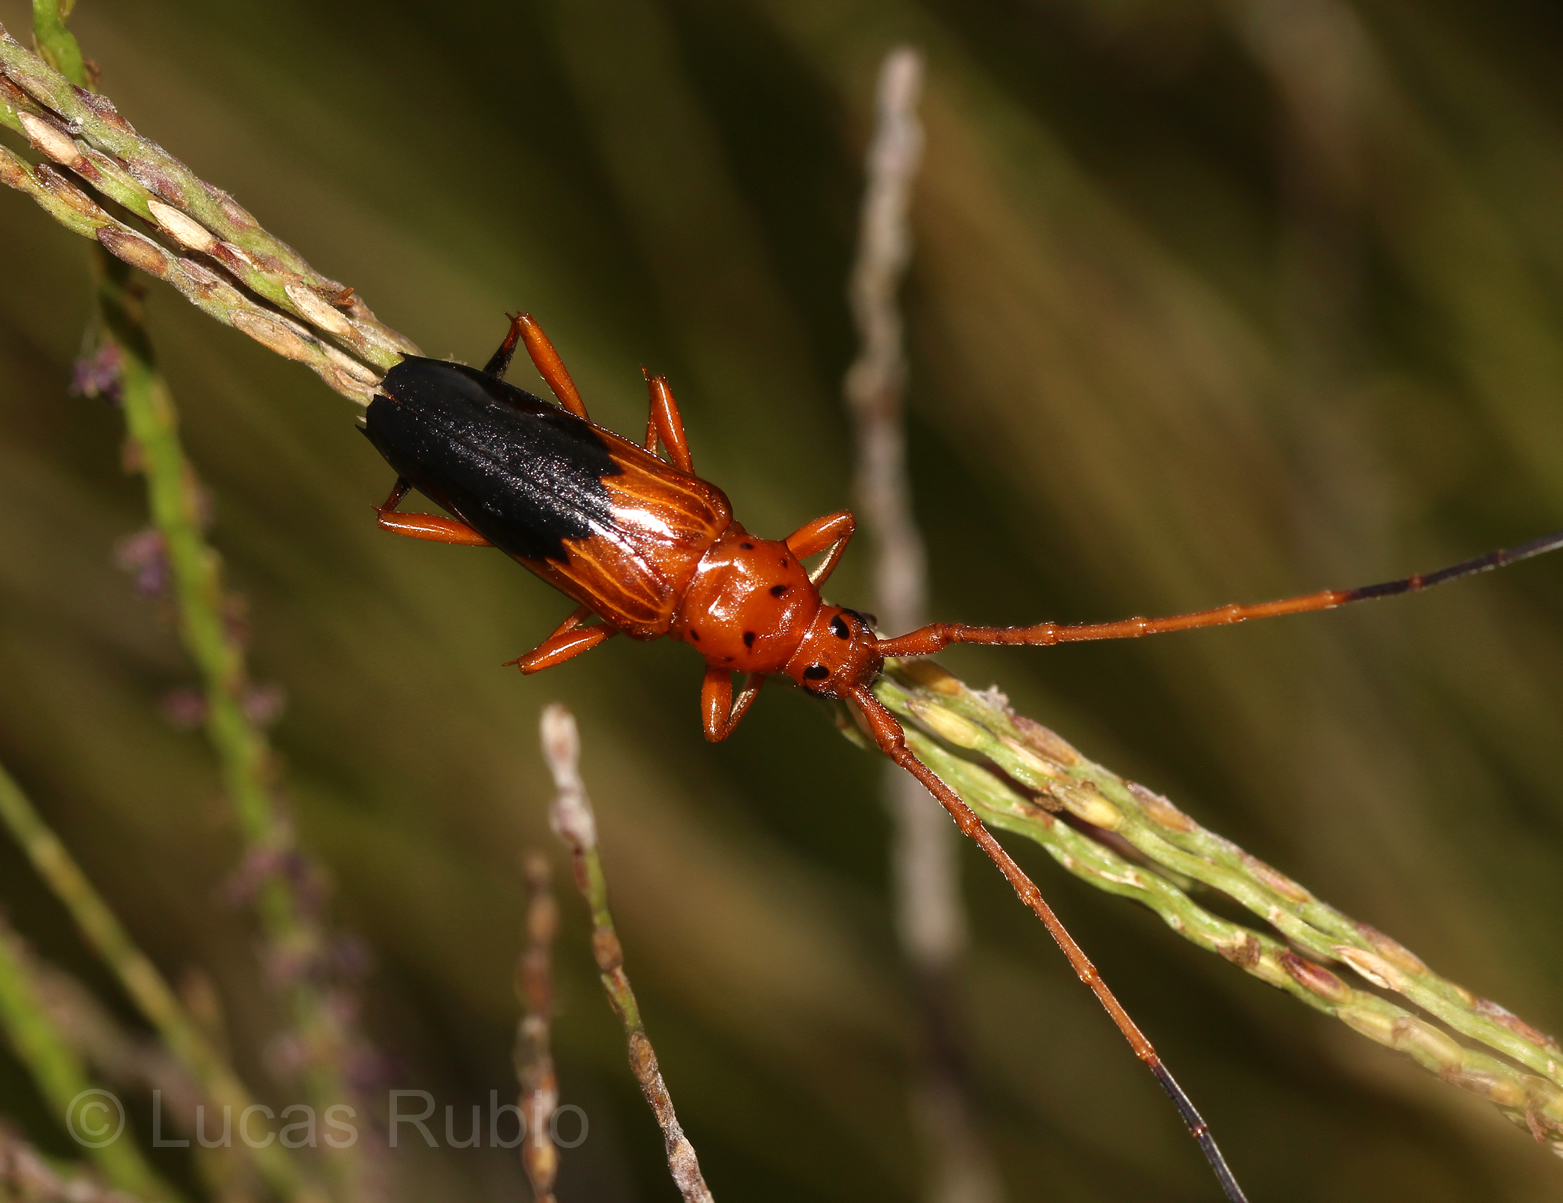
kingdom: Animalia
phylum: Arthropoda
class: Insecta
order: Coleoptera
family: Cerambycidae
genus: Oxymerus
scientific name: Oxymerus chevrolatii
